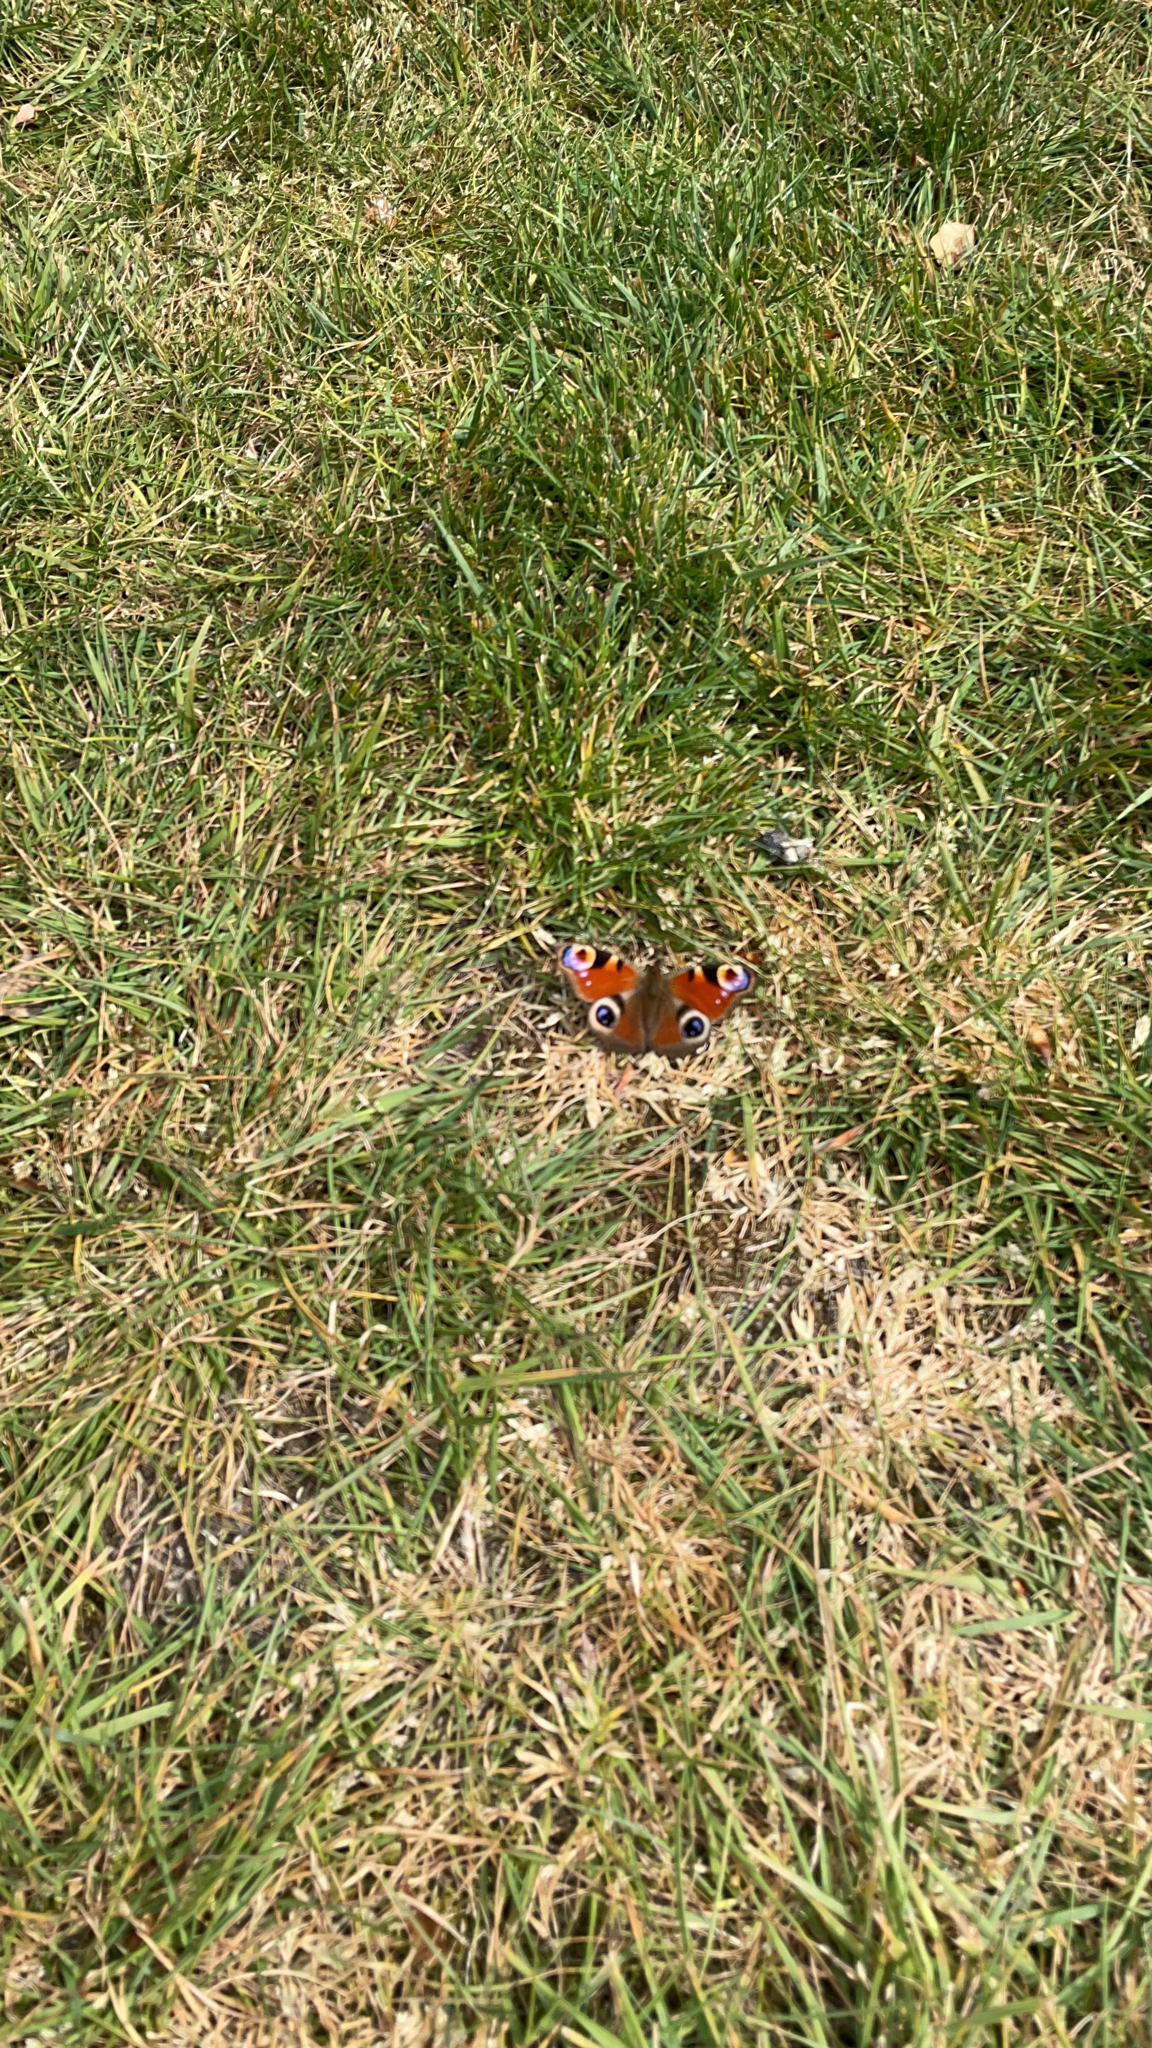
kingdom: Animalia
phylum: Arthropoda
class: Insecta
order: Lepidoptera
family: Nymphalidae
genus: Aglais
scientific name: Aglais io
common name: Peacock
